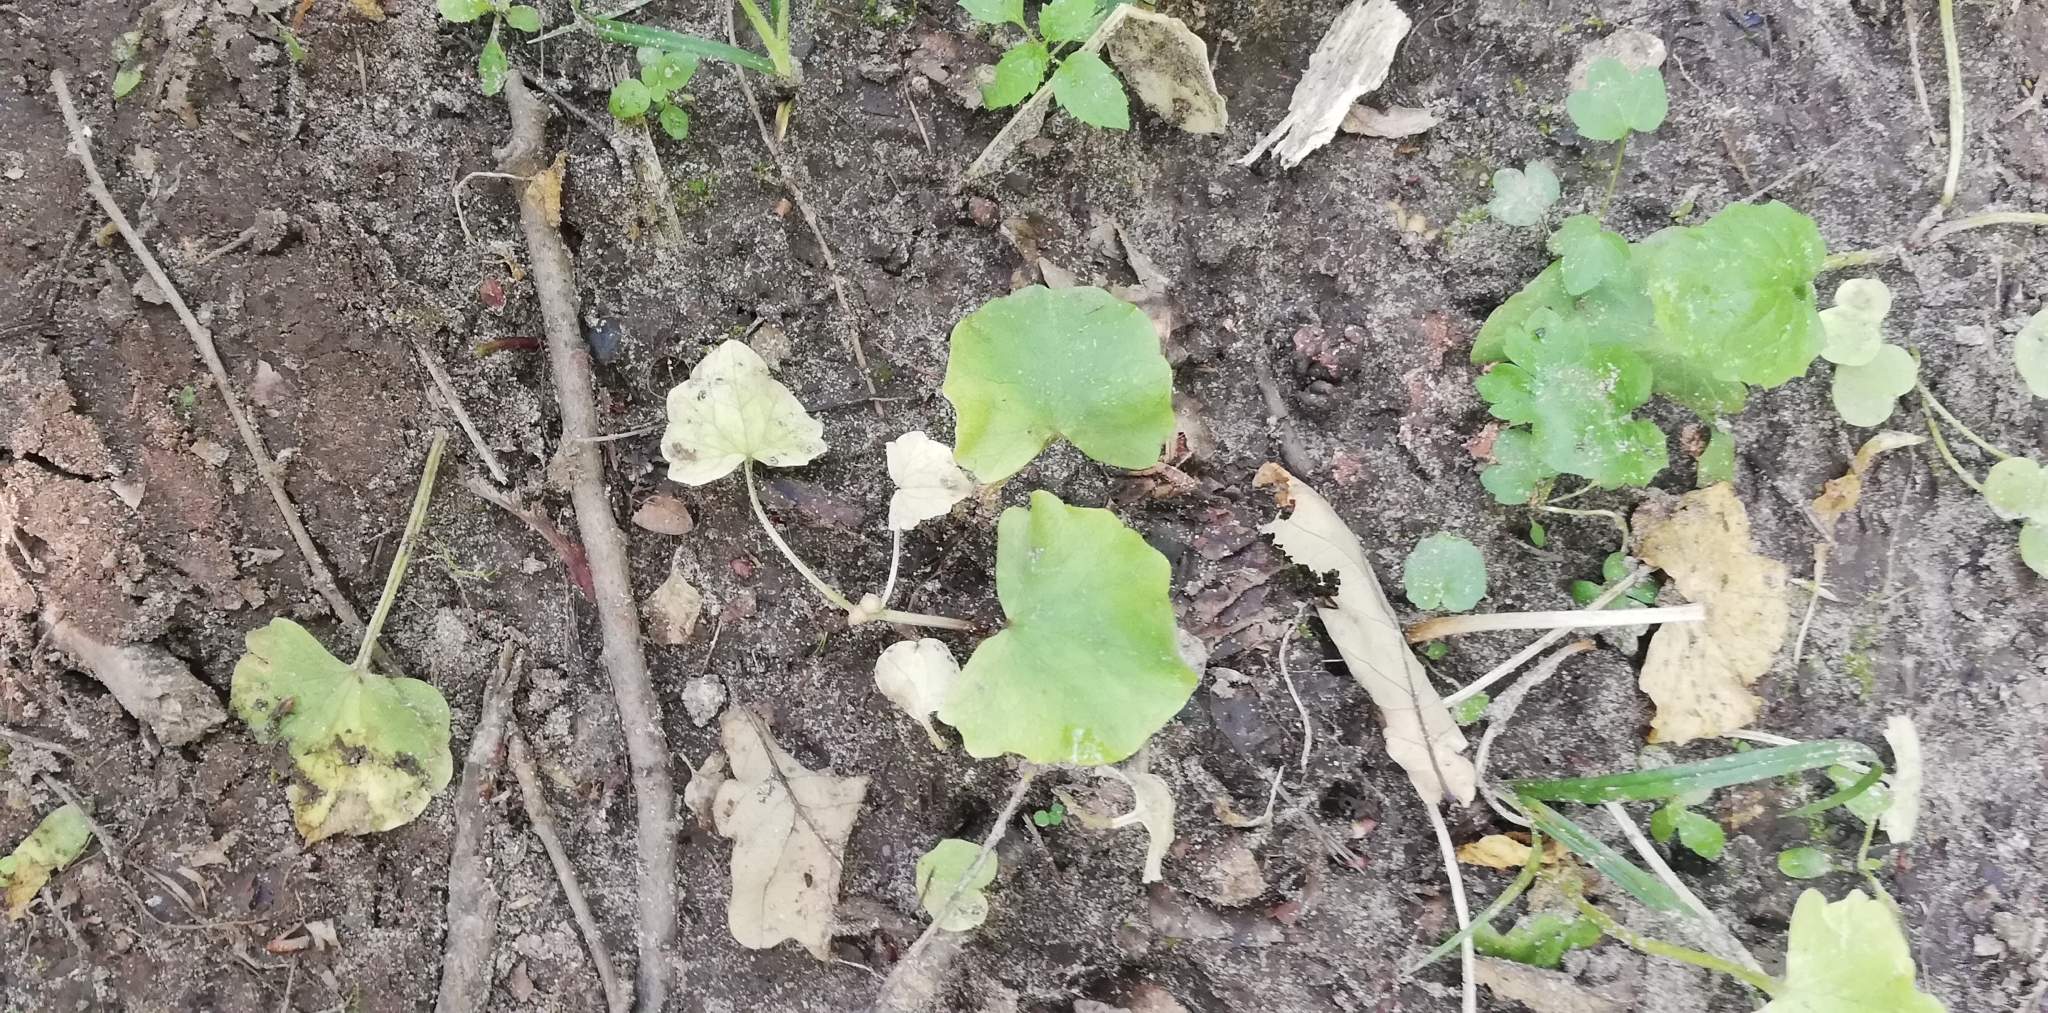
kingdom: Plantae
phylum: Tracheophyta
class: Magnoliopsida
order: Ranunculales
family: Ranunculaceae
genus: Ficaria
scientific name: Ficaria verna
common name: Lesser celandine
